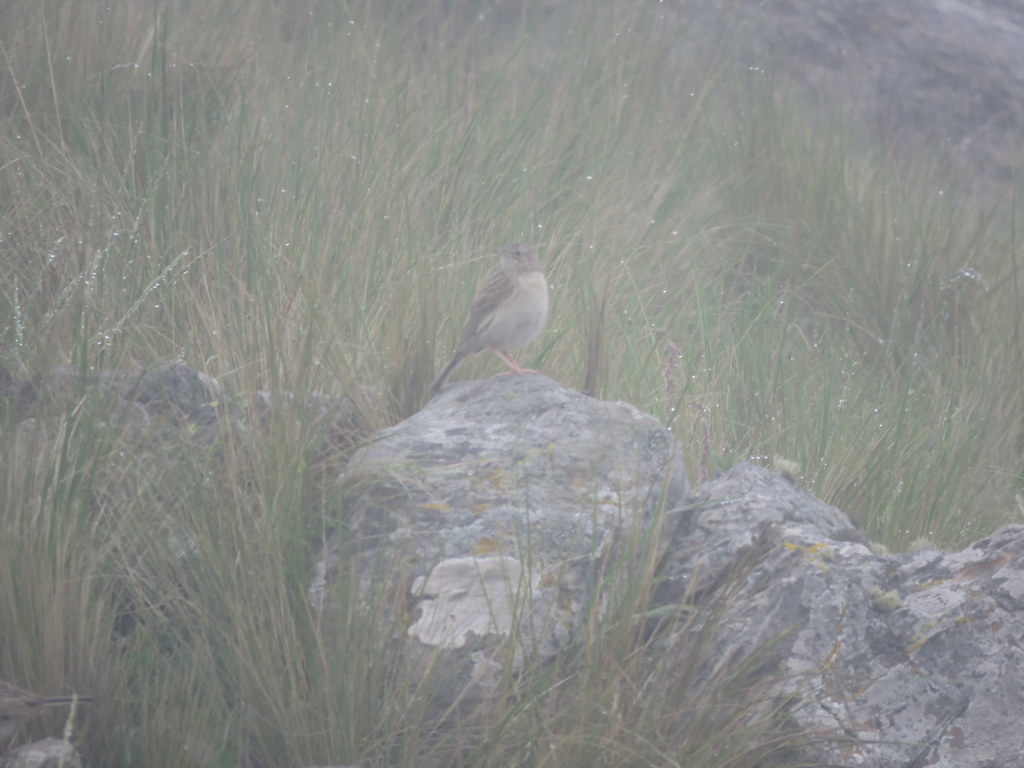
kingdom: Animalia
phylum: Chordata
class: Aves
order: Passeriformes
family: Motacillidae
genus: Anthus
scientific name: Anthus hellmayri
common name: Hellmayr's pipit
